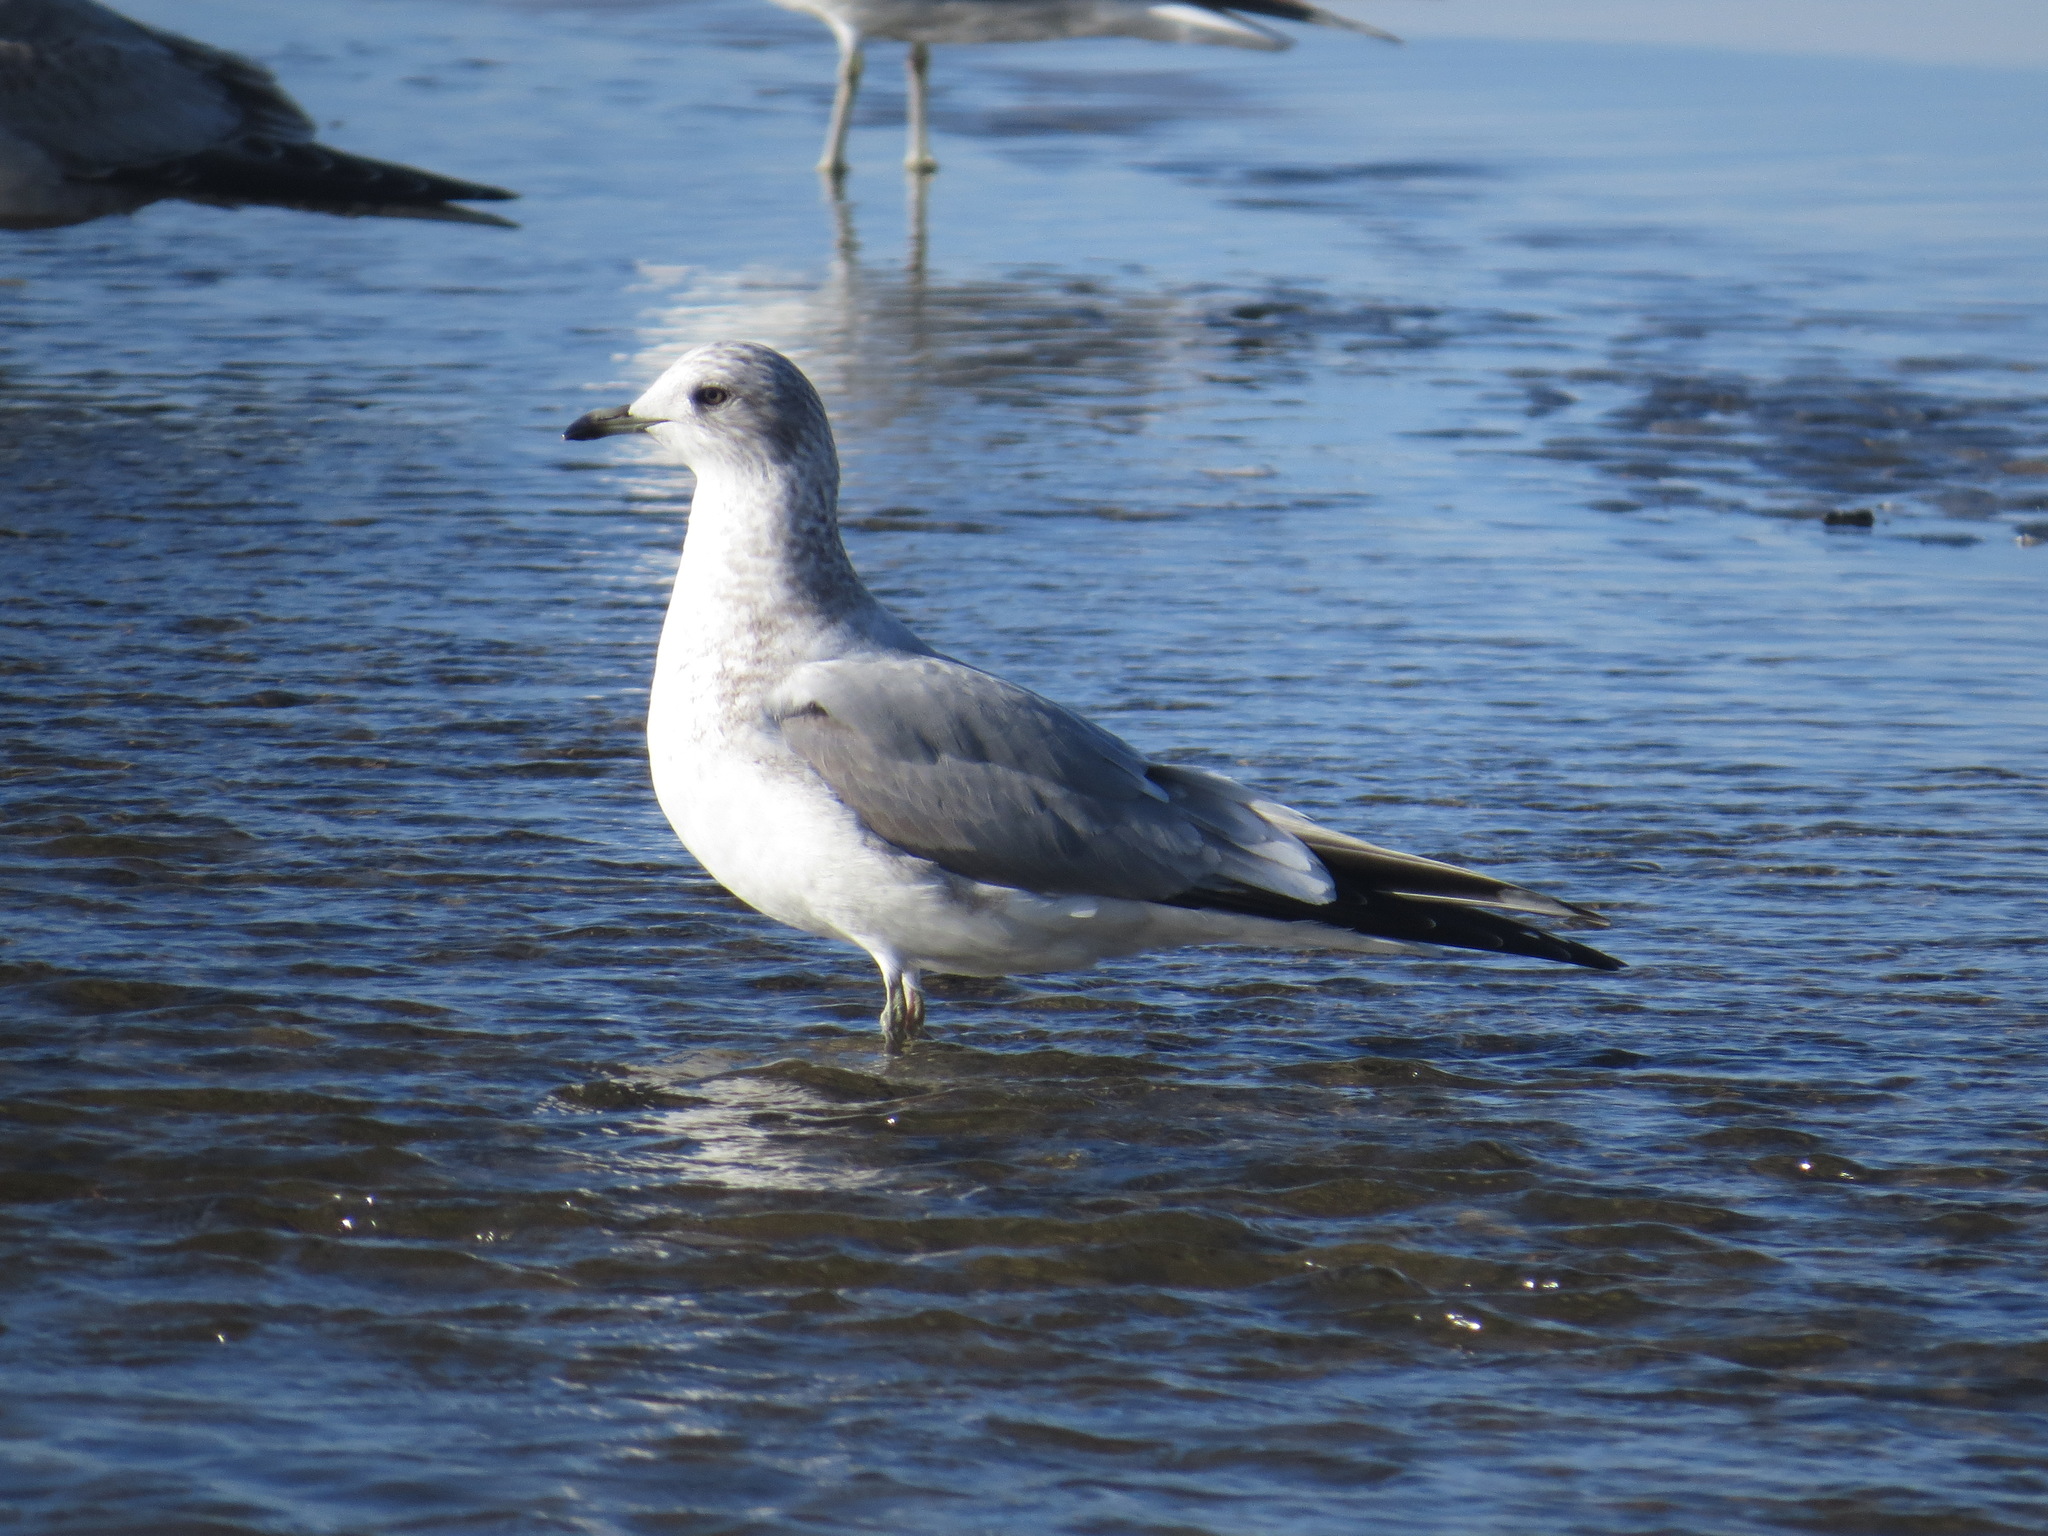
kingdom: Animalia
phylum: Chordata
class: Aves
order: Charadriiformes
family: Laridae
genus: Larus
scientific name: Larus brachyrhynchus
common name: Short-billed gull
